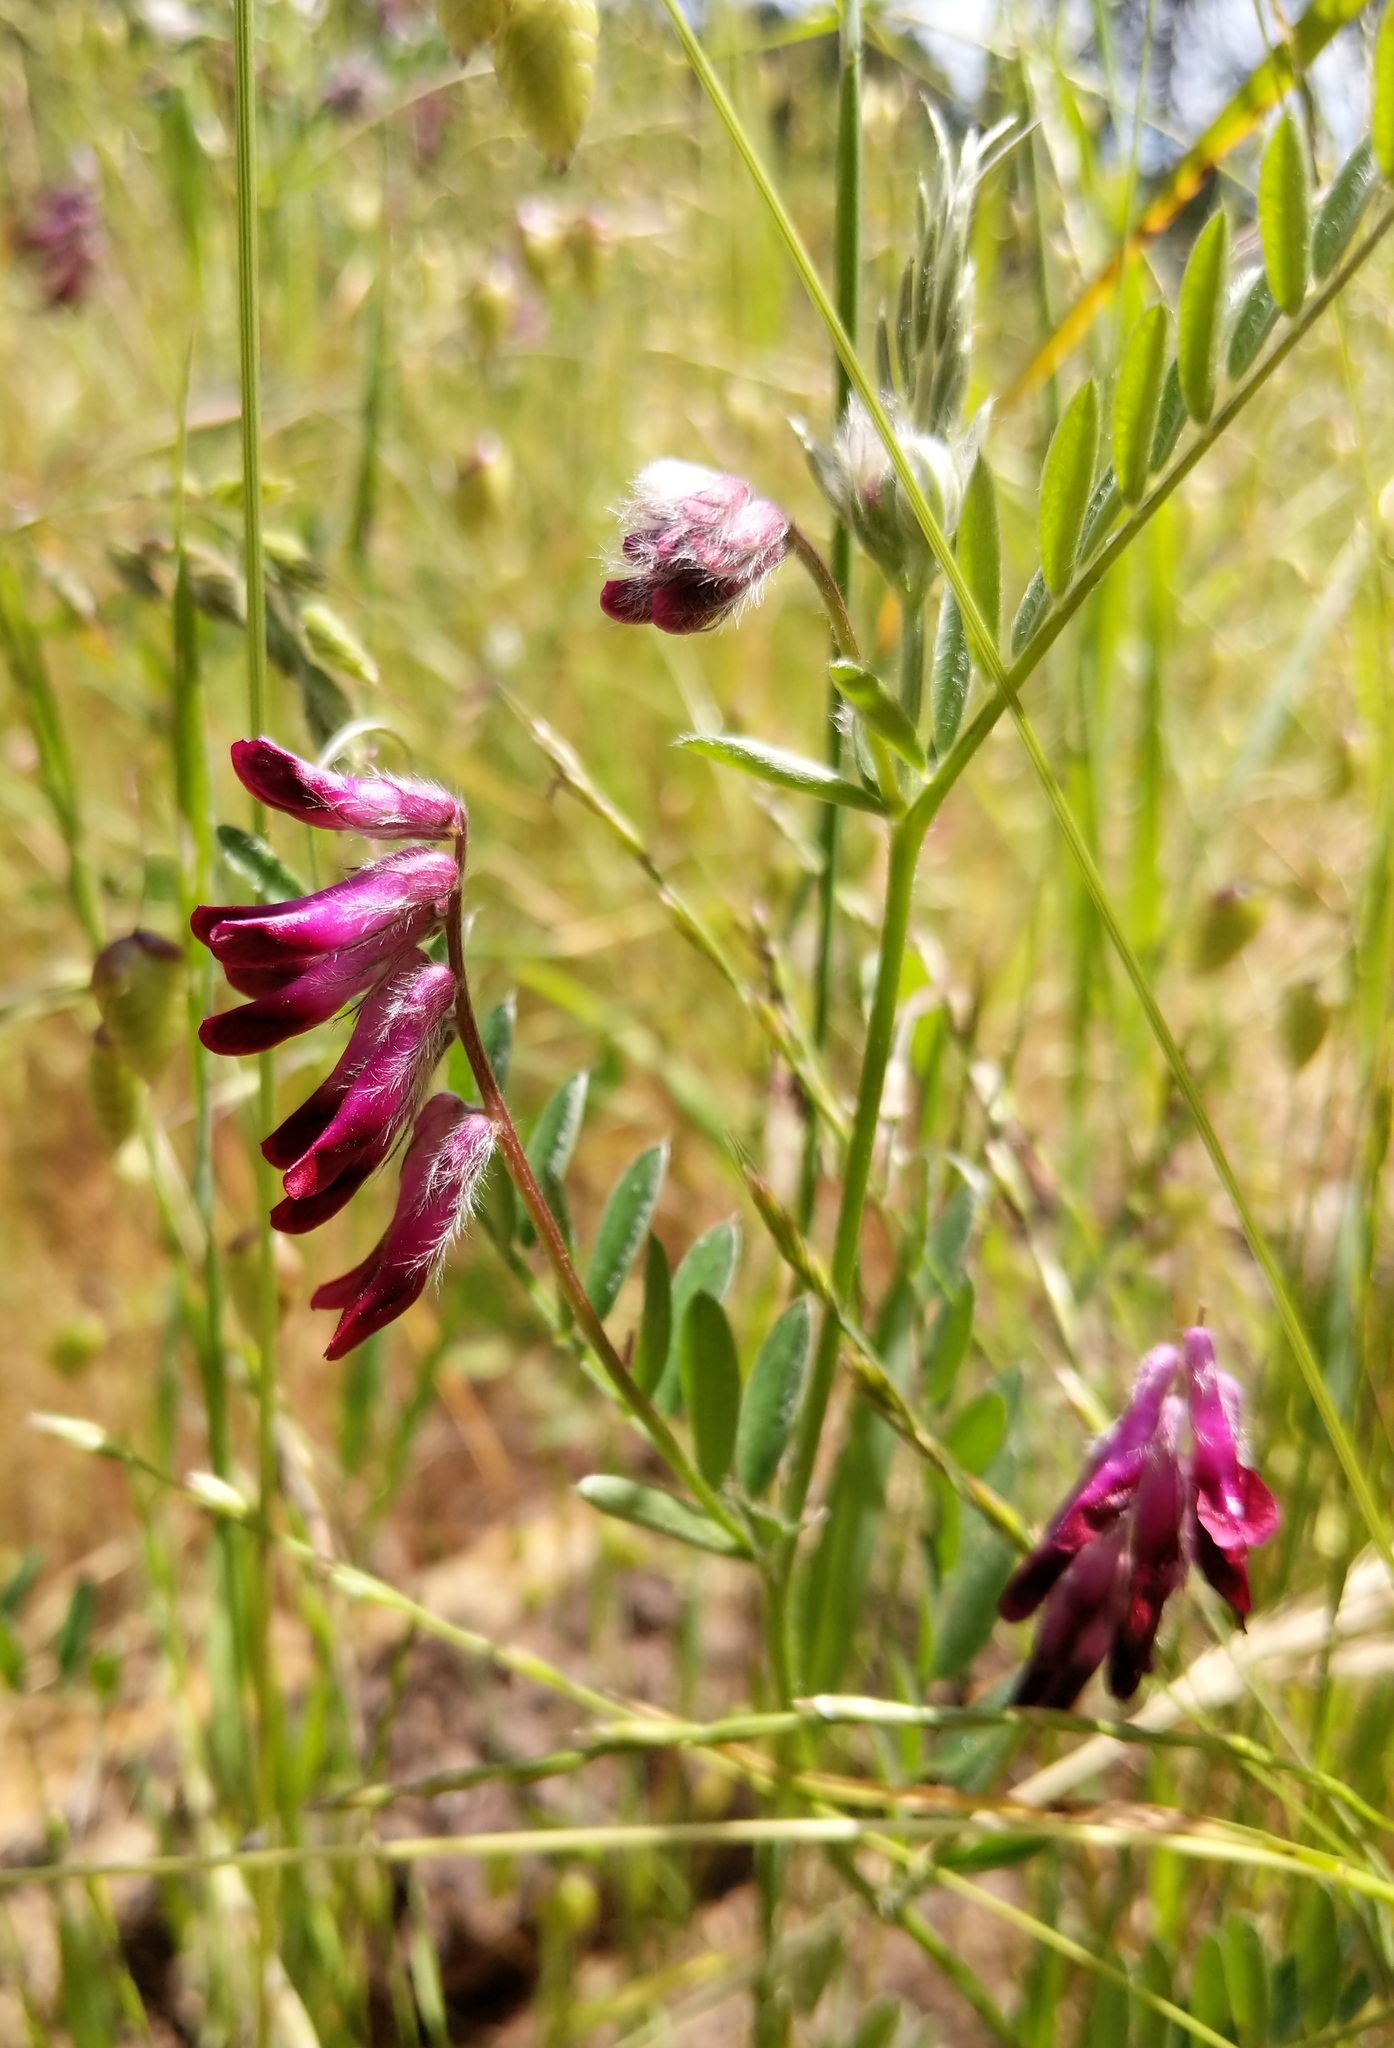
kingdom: Plantae
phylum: Tracheophyta
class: Magnoliopsida
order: Fabales
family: Fabaceae
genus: Vicia
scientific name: Vicia benghalensis
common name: Purple vetch
